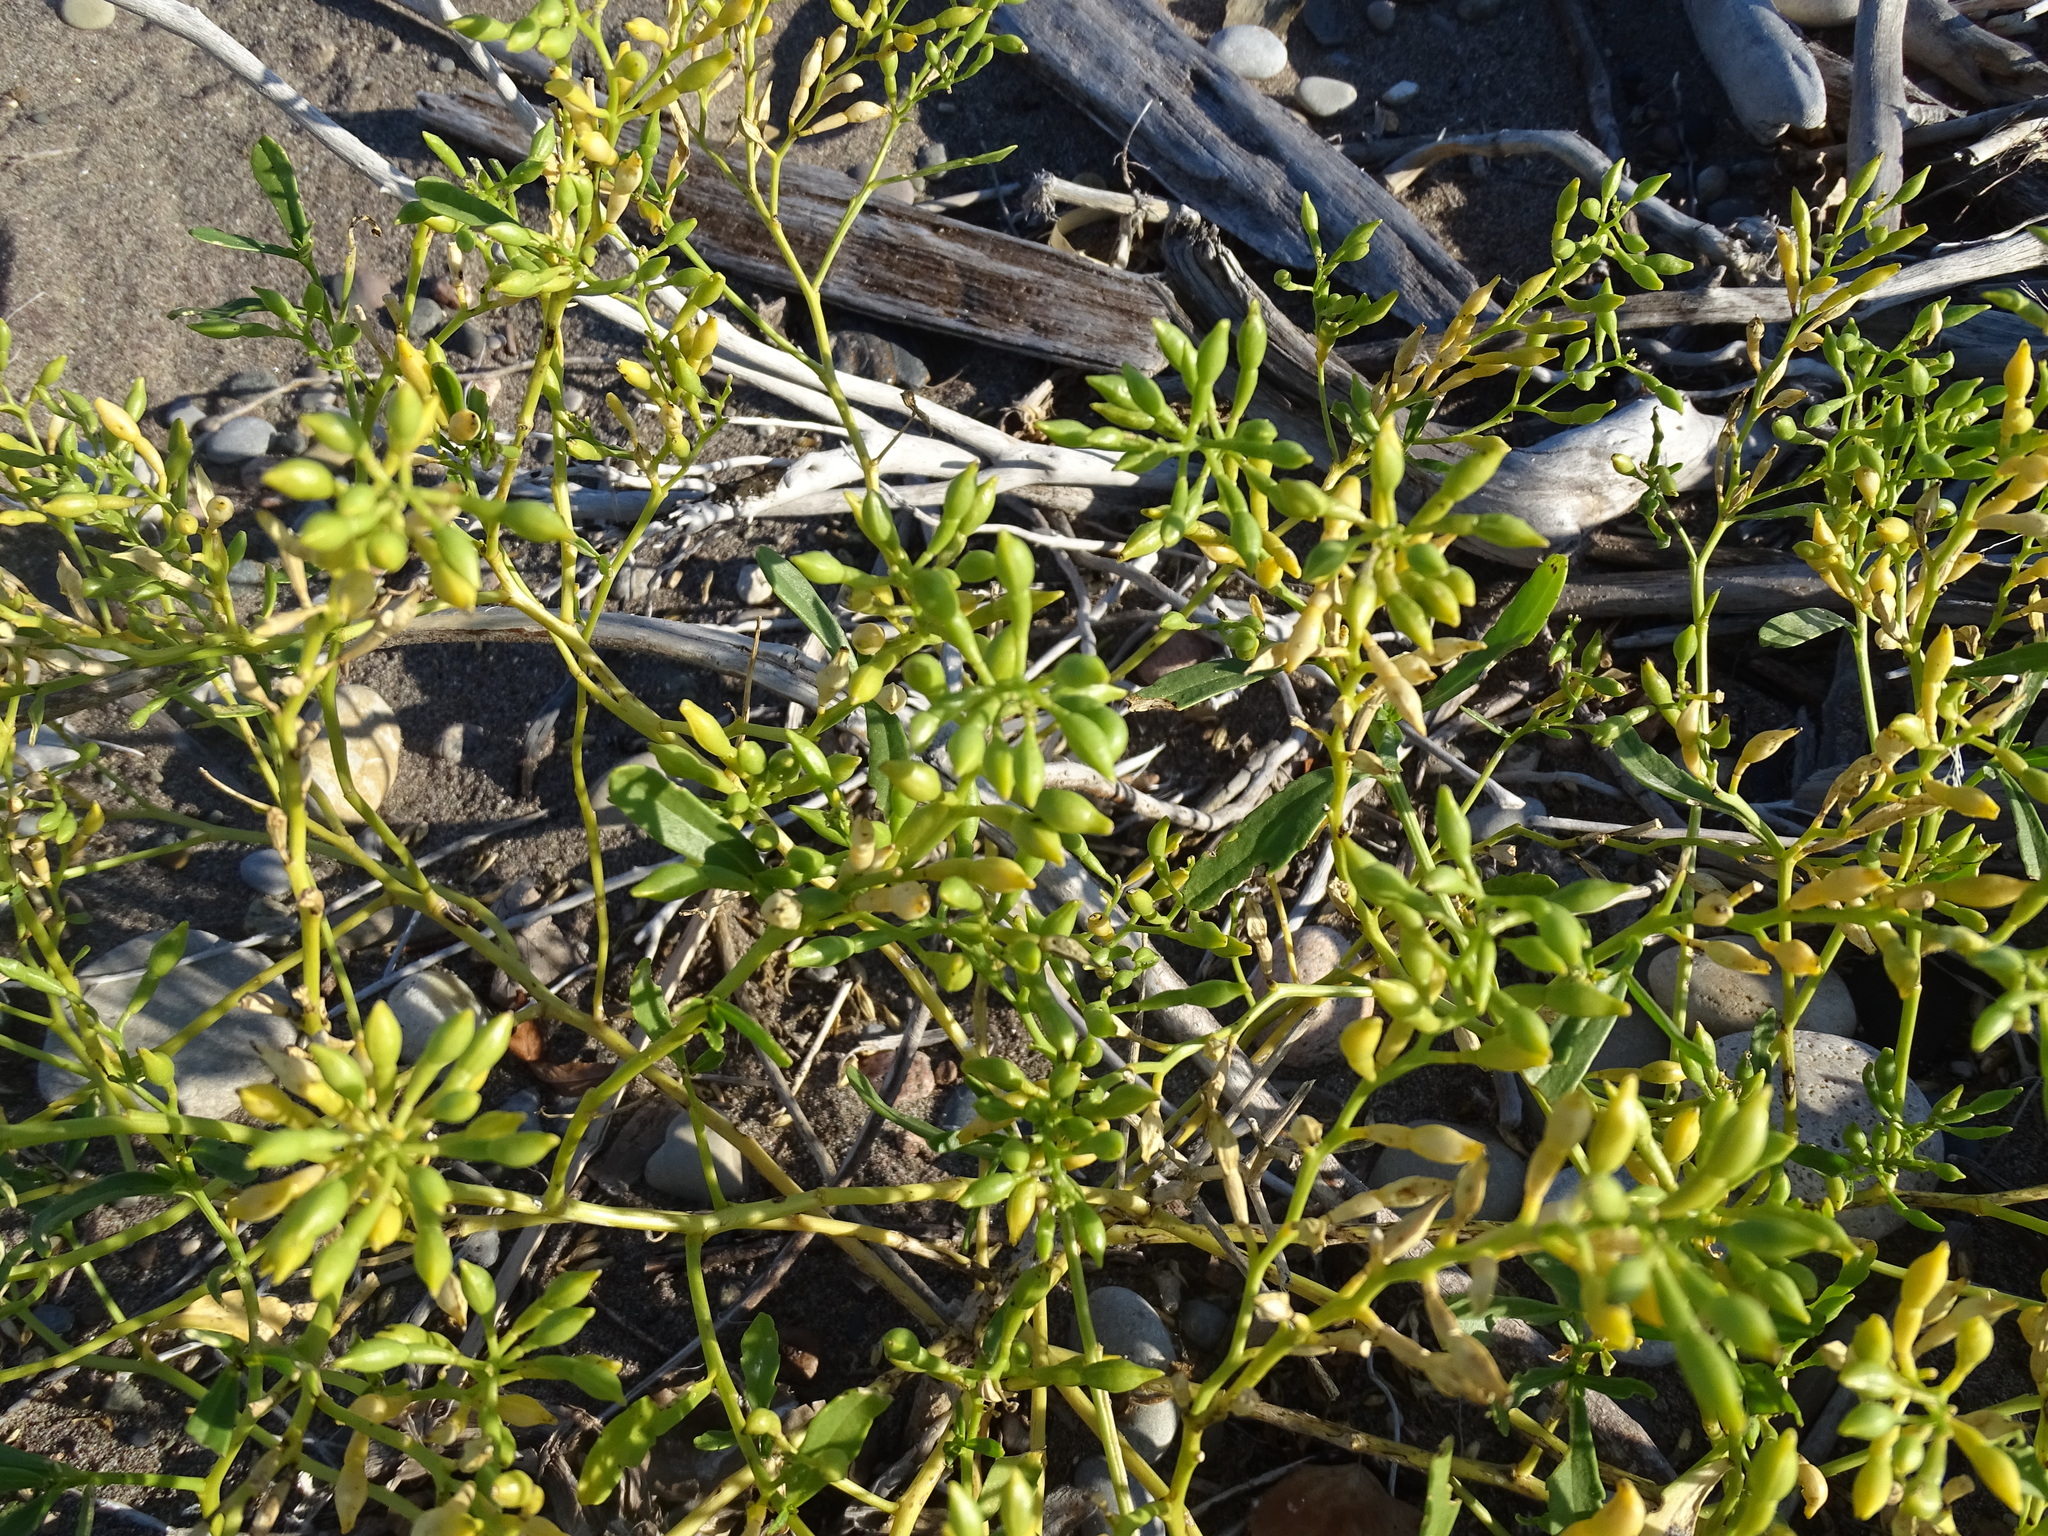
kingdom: Plantae
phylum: Tracheophyta
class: Magnoliopsida
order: Brassicales
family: Brassicaceae
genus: Cakile
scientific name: Cakile edentula
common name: American sea rocket
